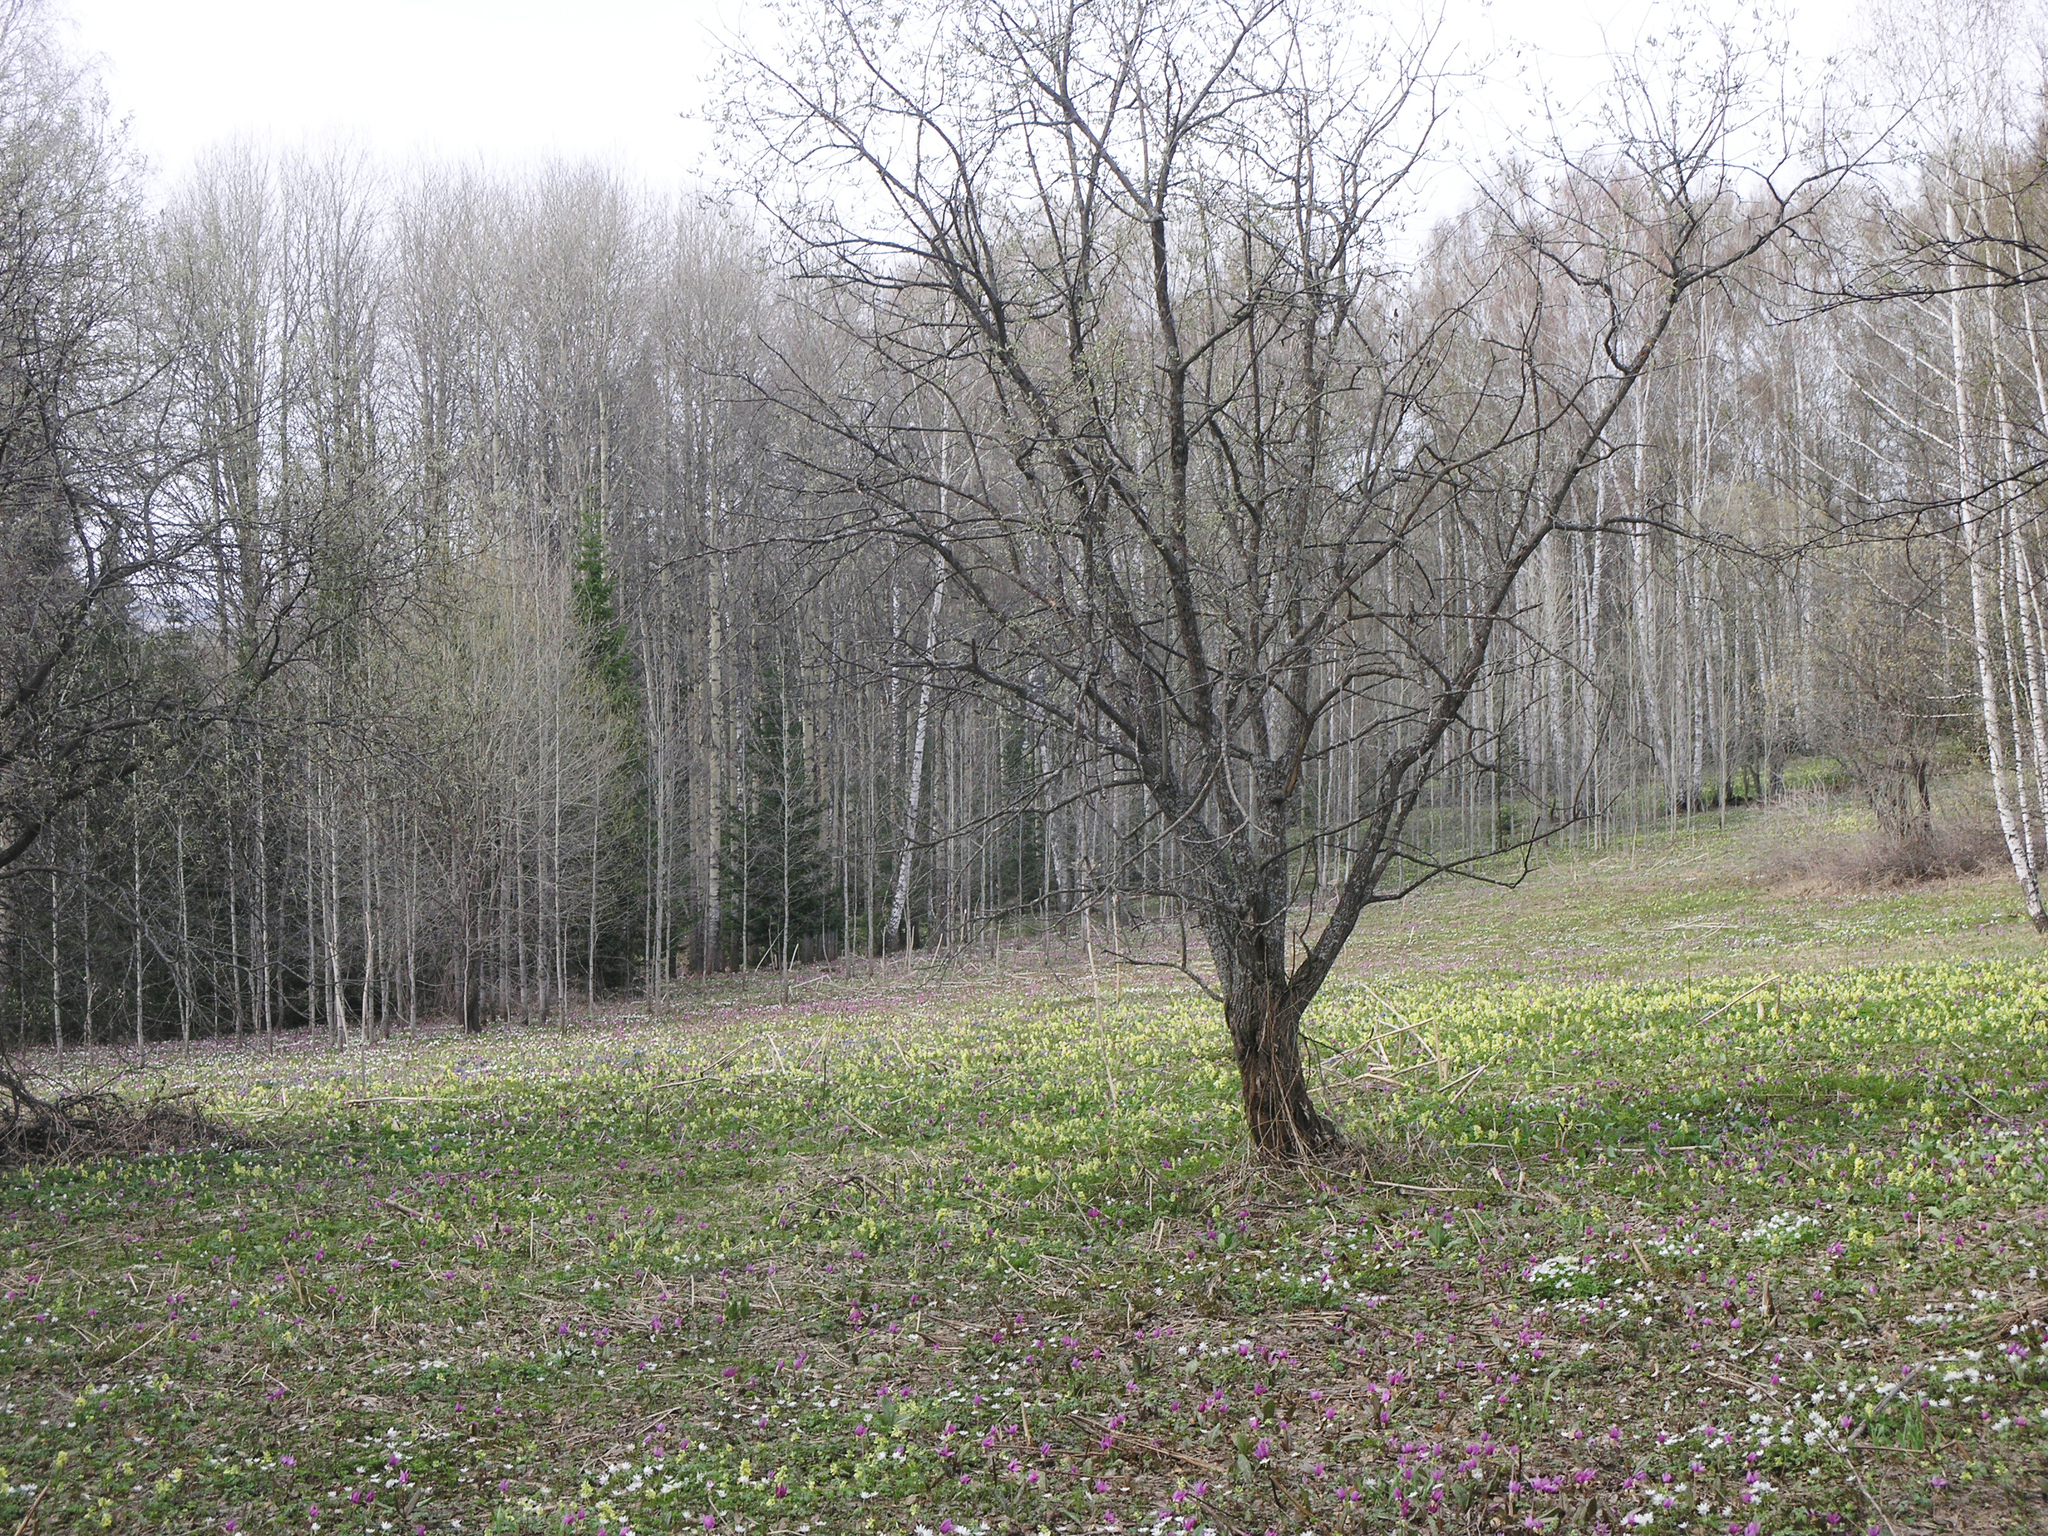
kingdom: Plantae
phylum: Tracheophyta
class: Magnoliopsida
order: Ranunculales
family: Ranunculaceae
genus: Anemone
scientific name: Anemone altaica
